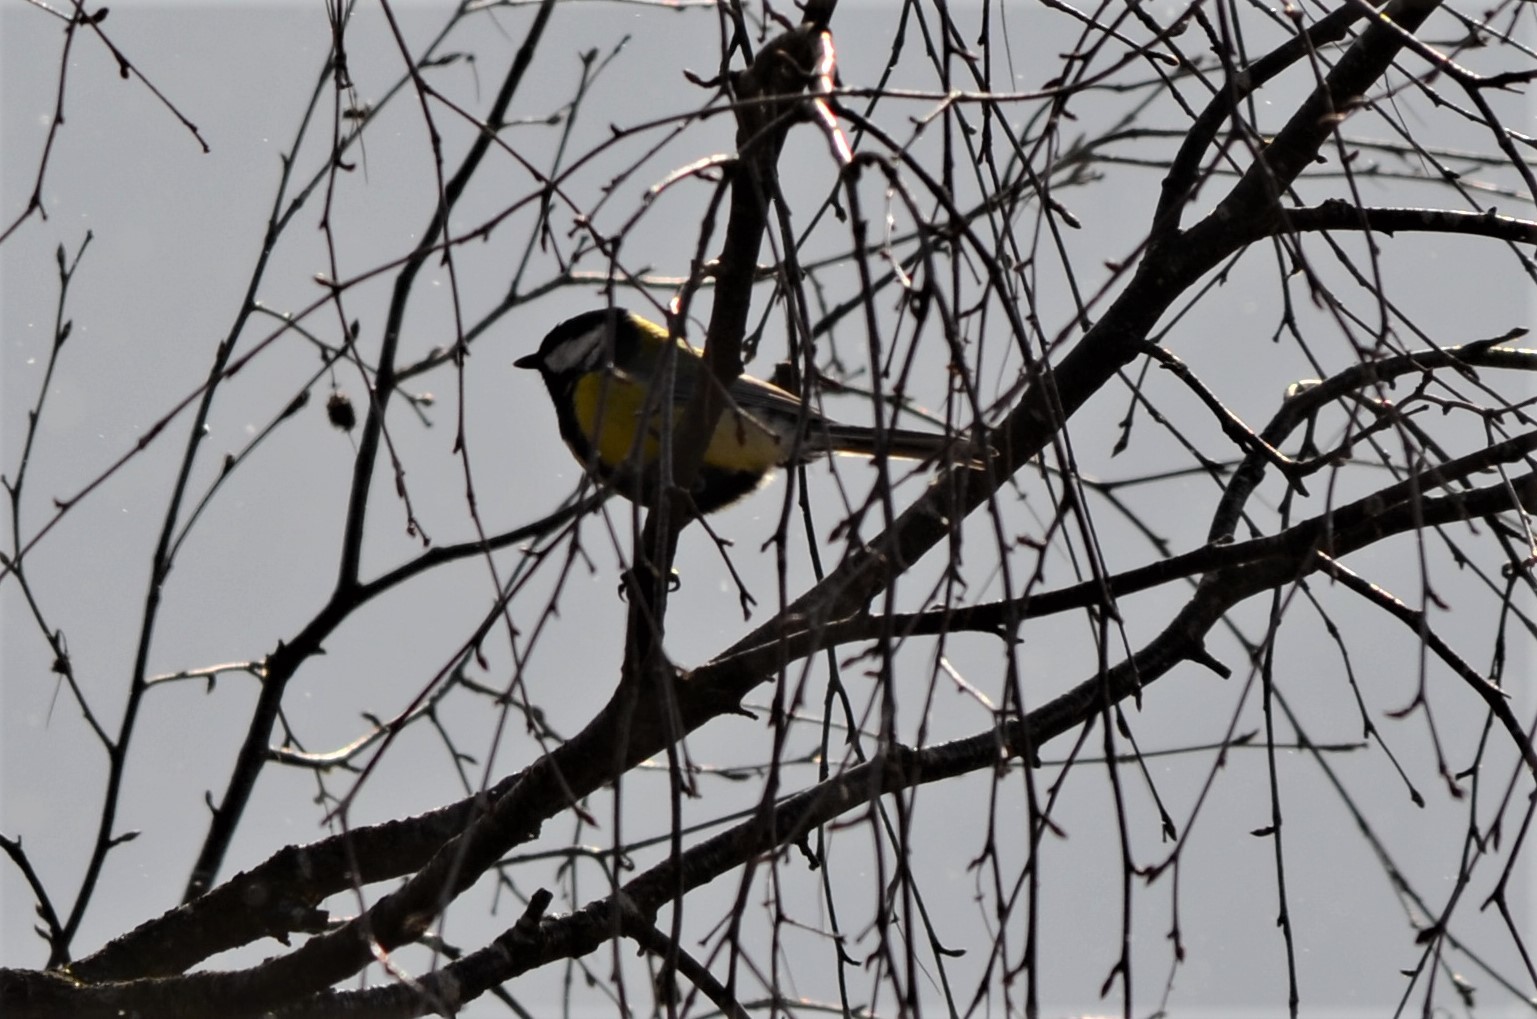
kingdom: Animalia
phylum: Chordata
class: Aves
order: Passeriformes
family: Paridae
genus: Parus
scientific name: Parus major
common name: Great tit
